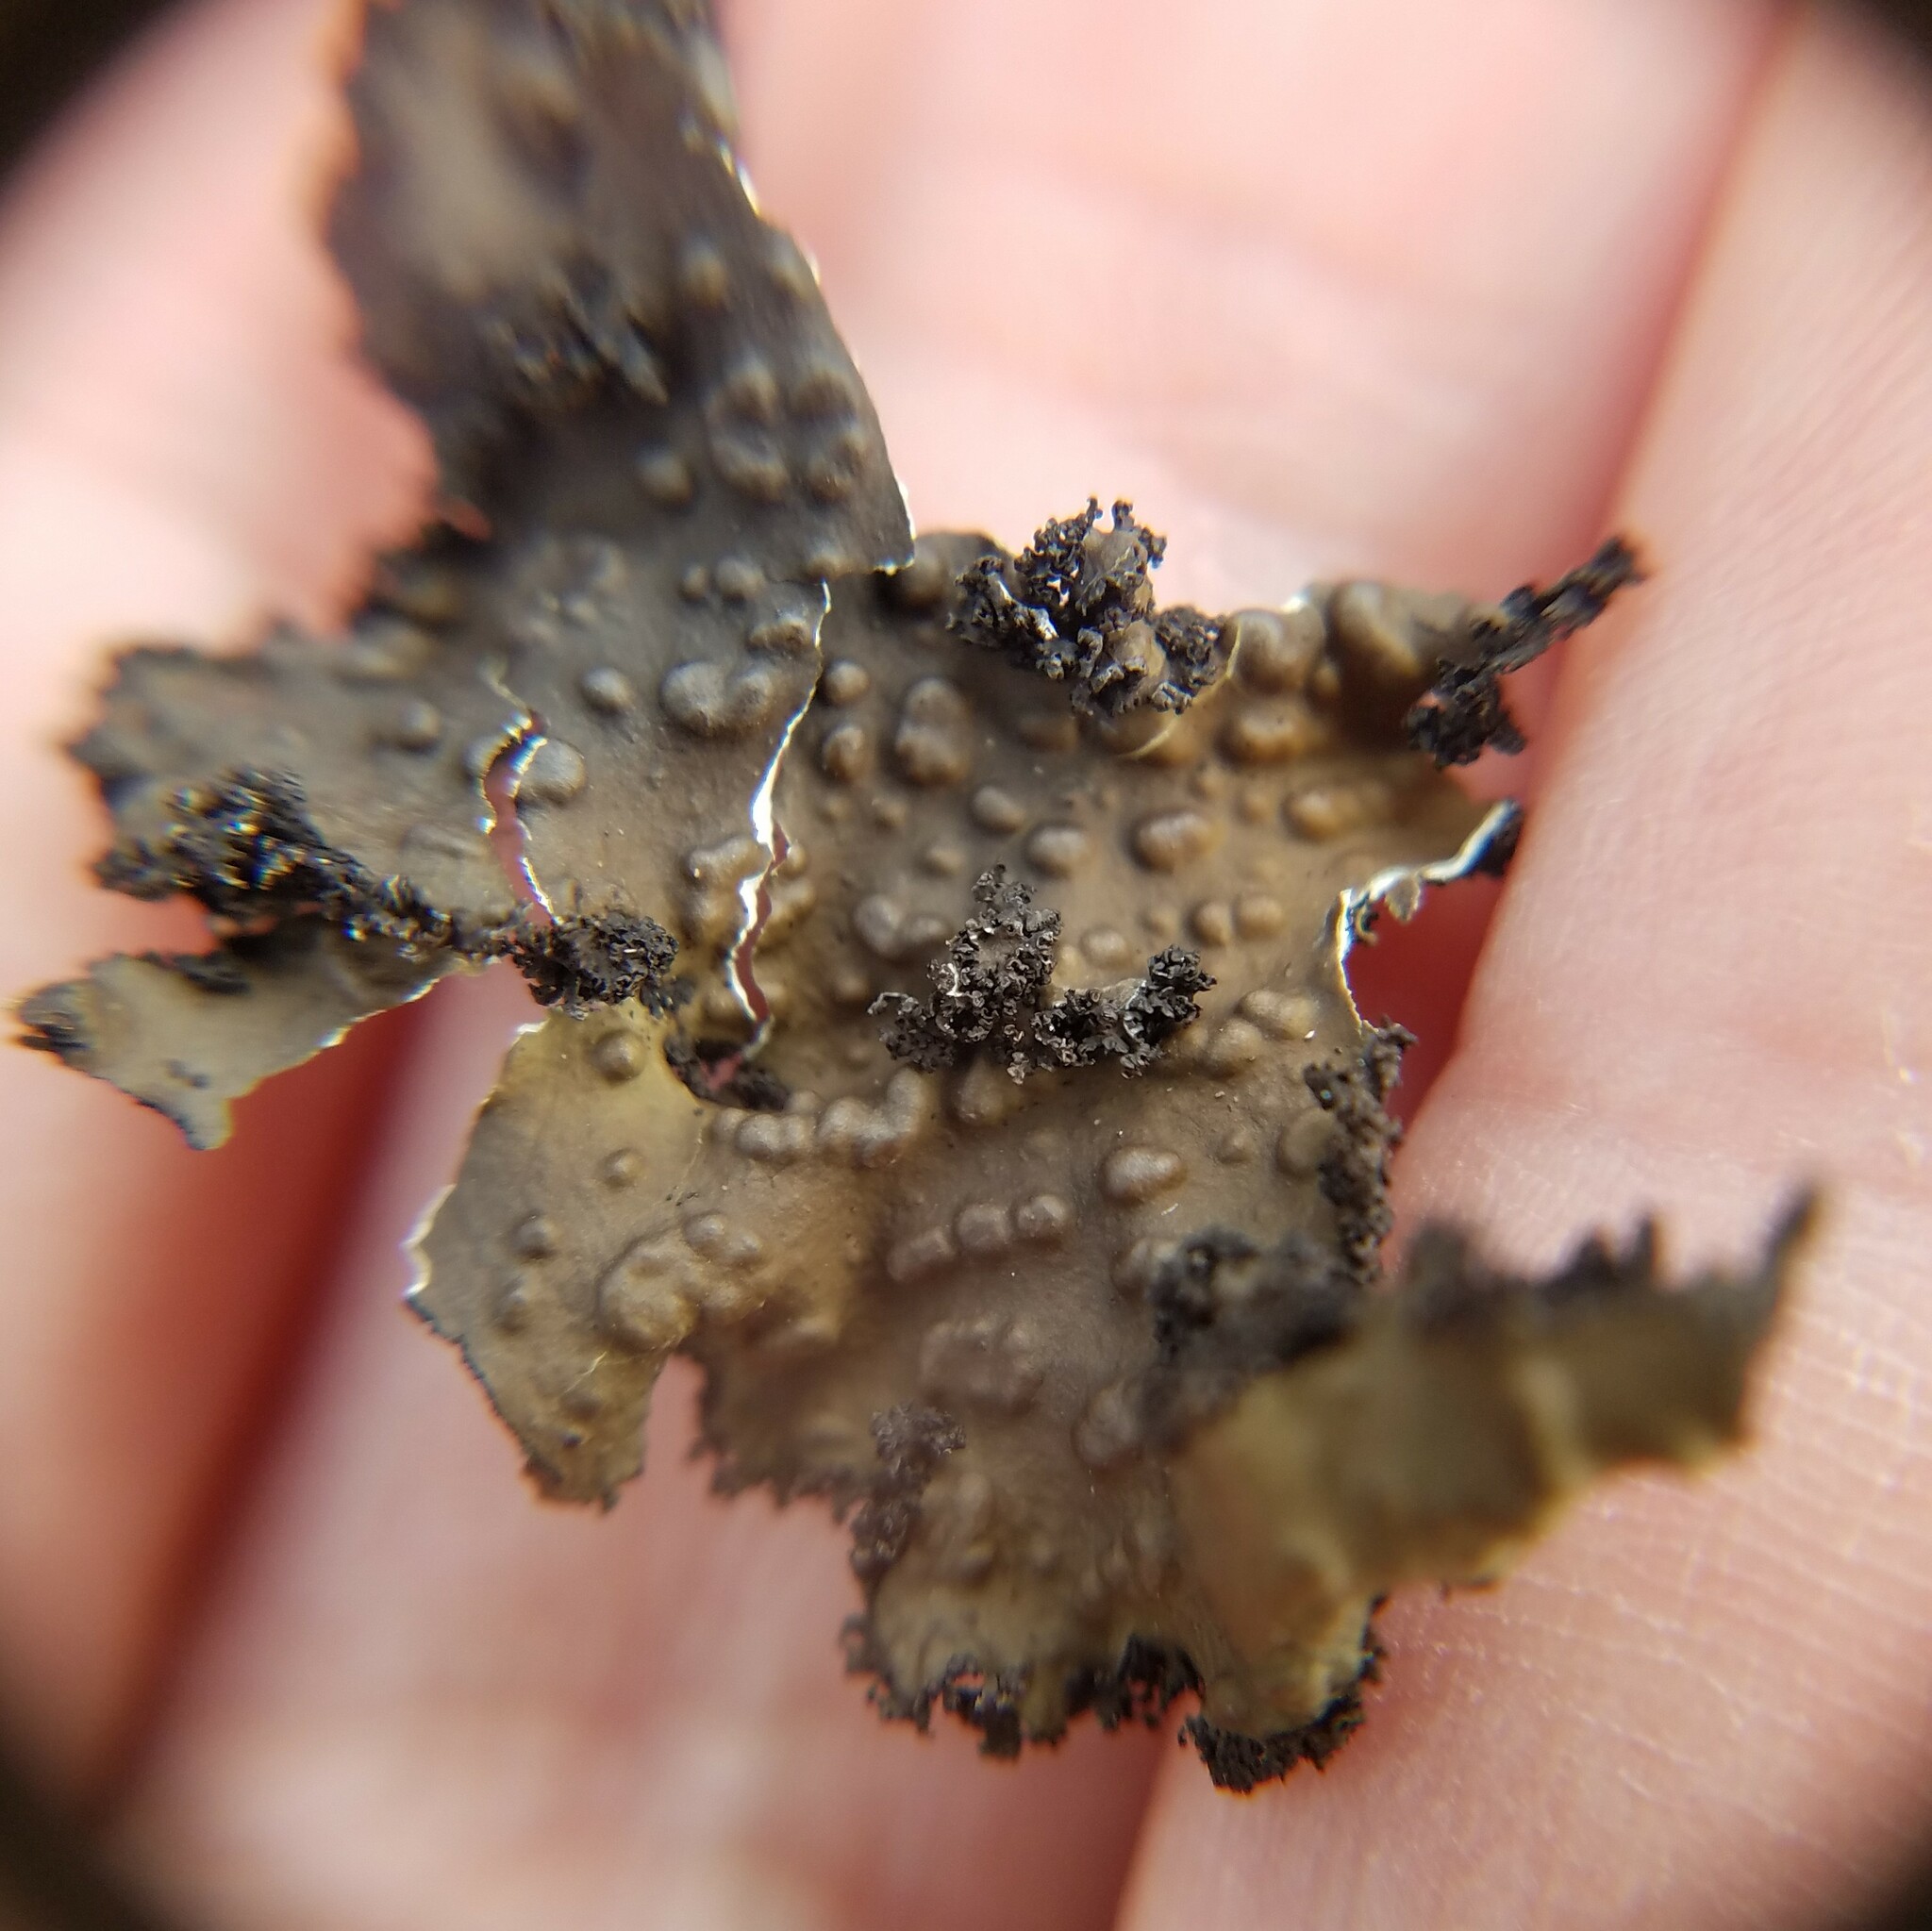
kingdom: Fungi
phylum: Ascomycota
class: Lecanoromycetes
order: Umbilicariales
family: Umbilicariaceae
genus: Lasallia
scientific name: Lasallia pensylvanica
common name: Blackened toadskin lichen
